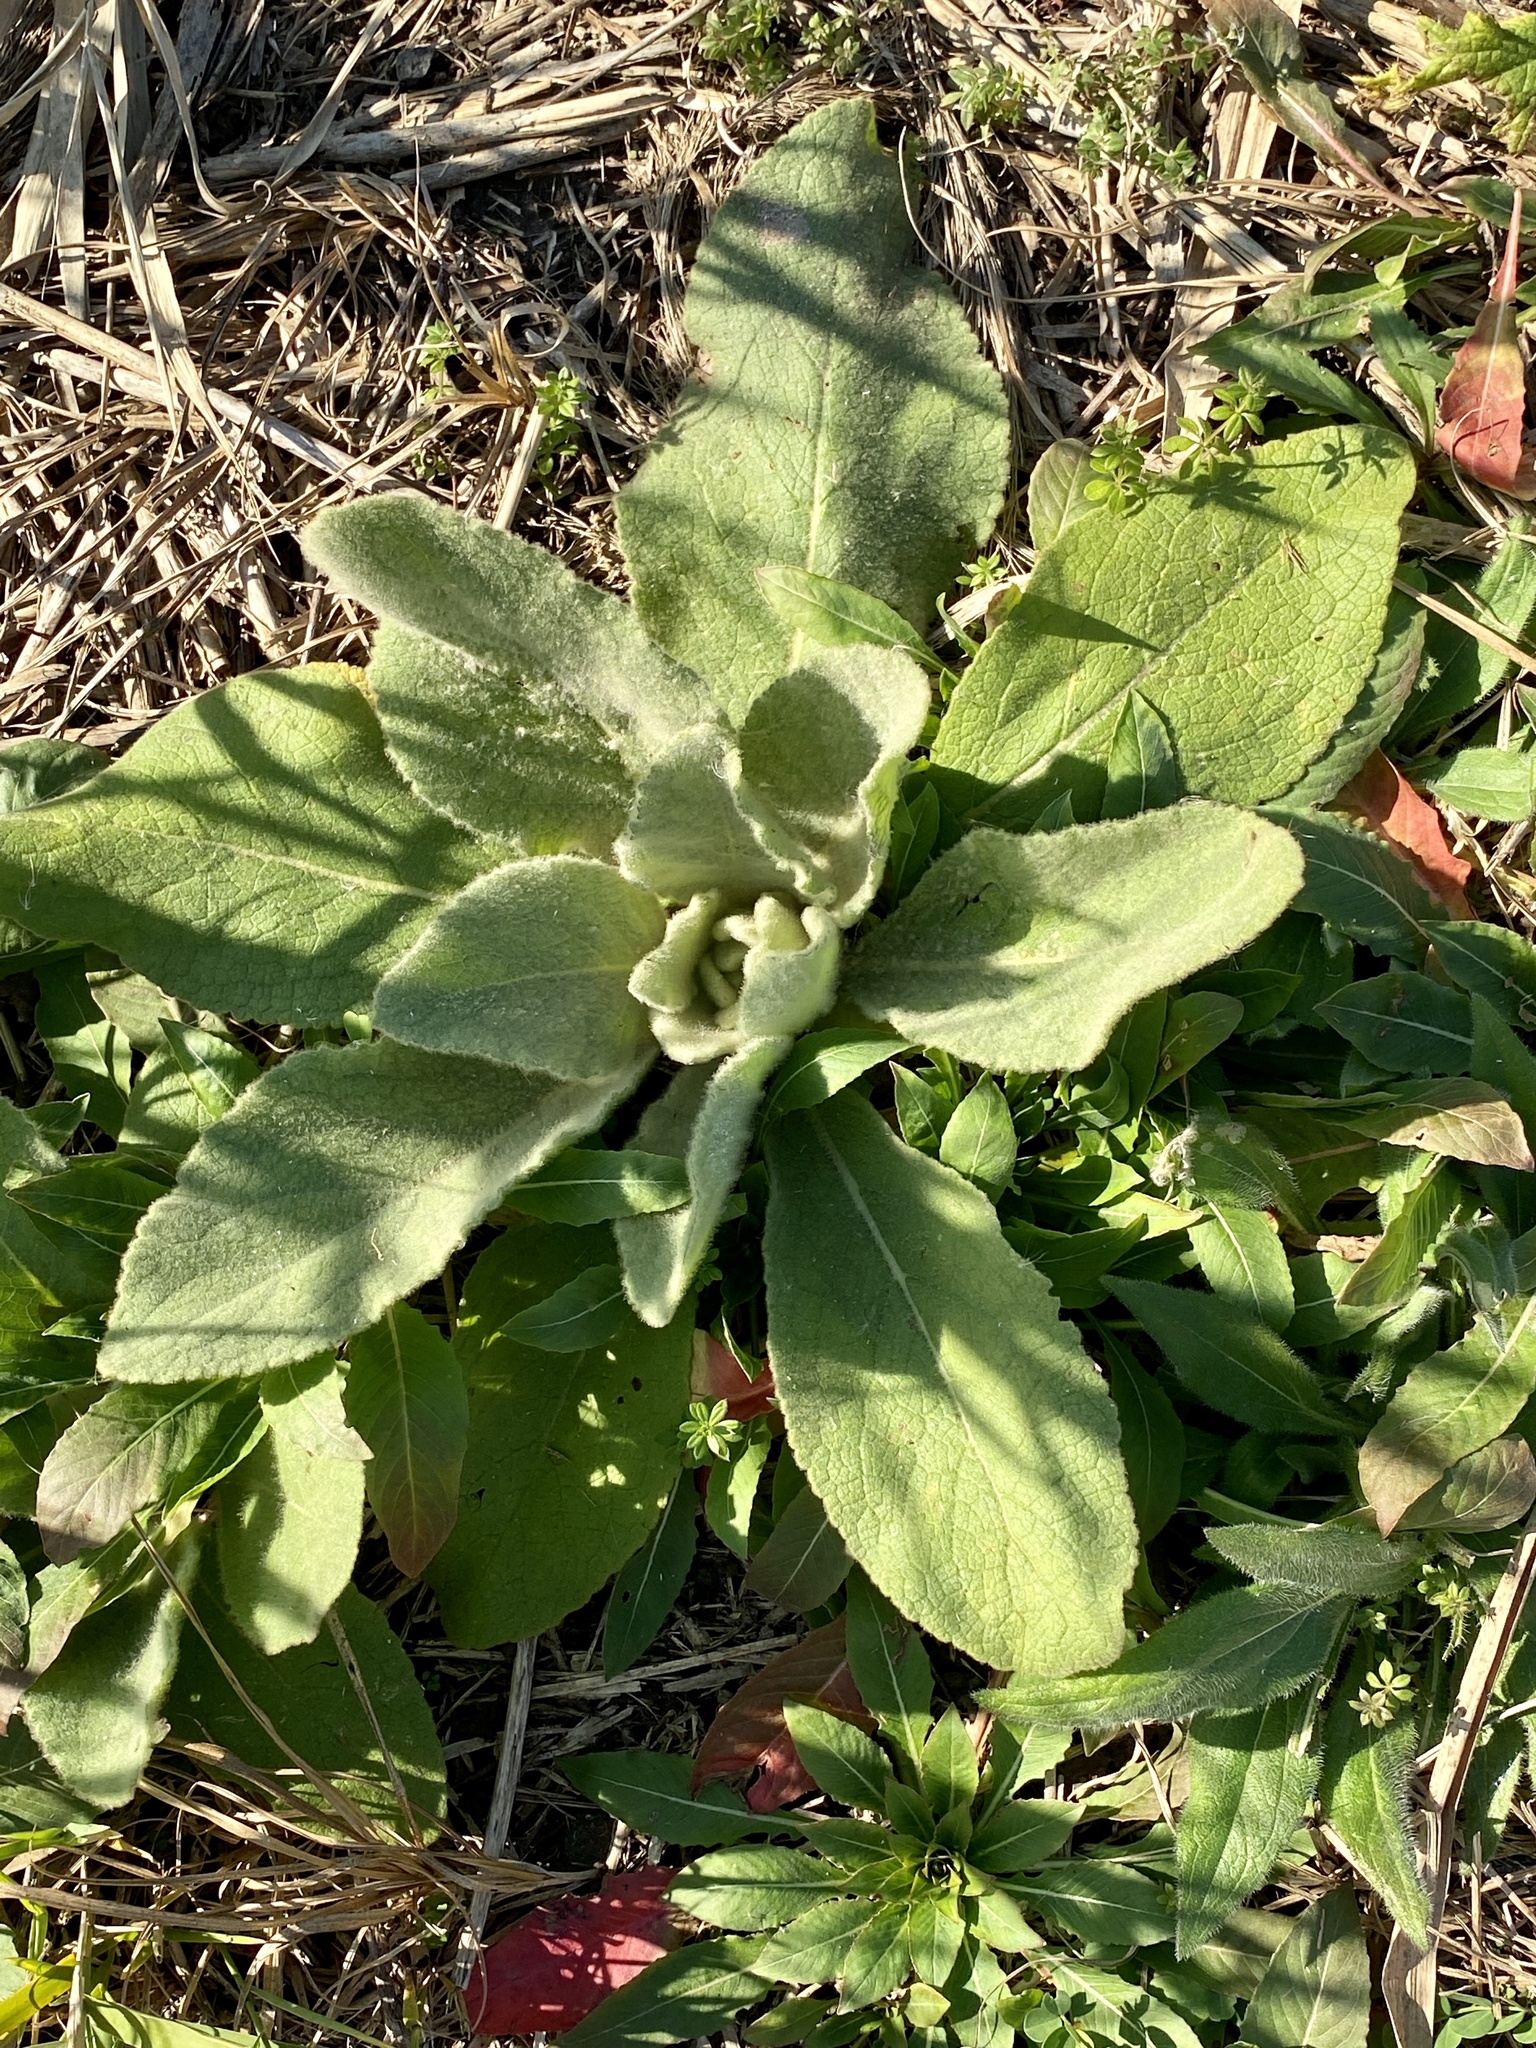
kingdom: Plantae
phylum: Tracheophyta
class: Magnoliopsida
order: Lamiales
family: Scrophulariaceae
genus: Verbascum
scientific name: Verbascum thapsus
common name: Common mullein
